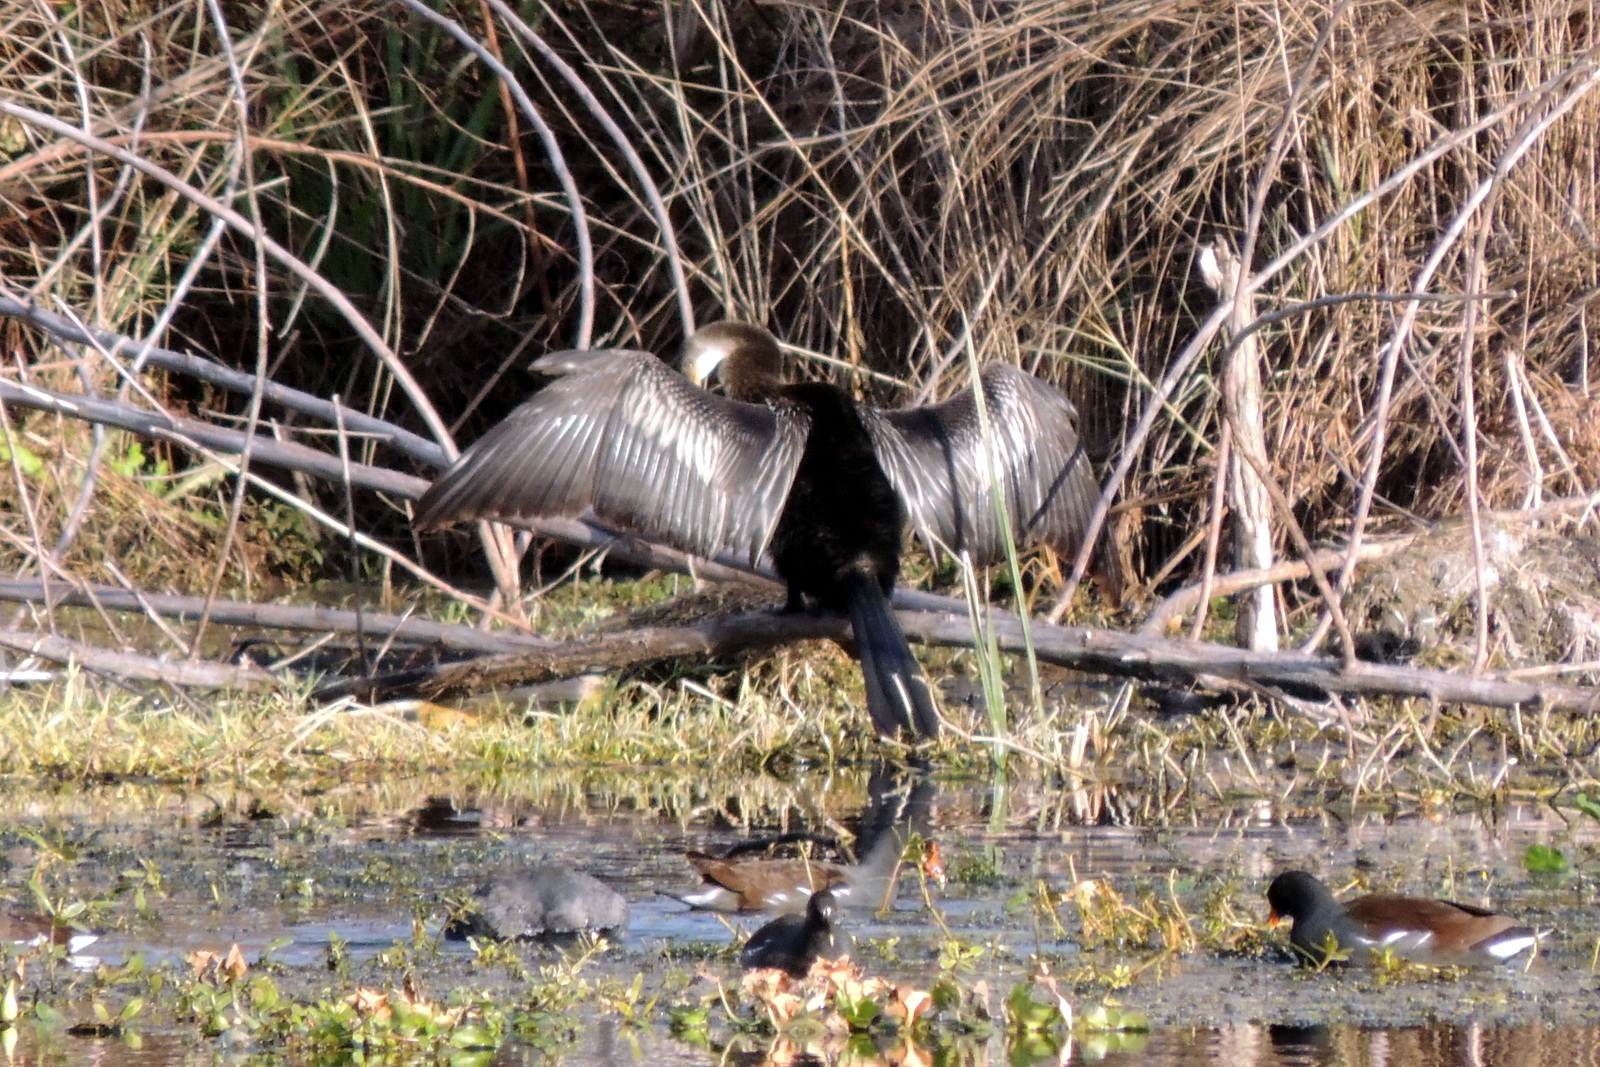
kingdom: Animalia
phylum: Chordata
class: Aves
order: Suliformes
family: Anhingidae
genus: Anhinga
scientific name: Anhinga anhinga
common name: Anhinga
